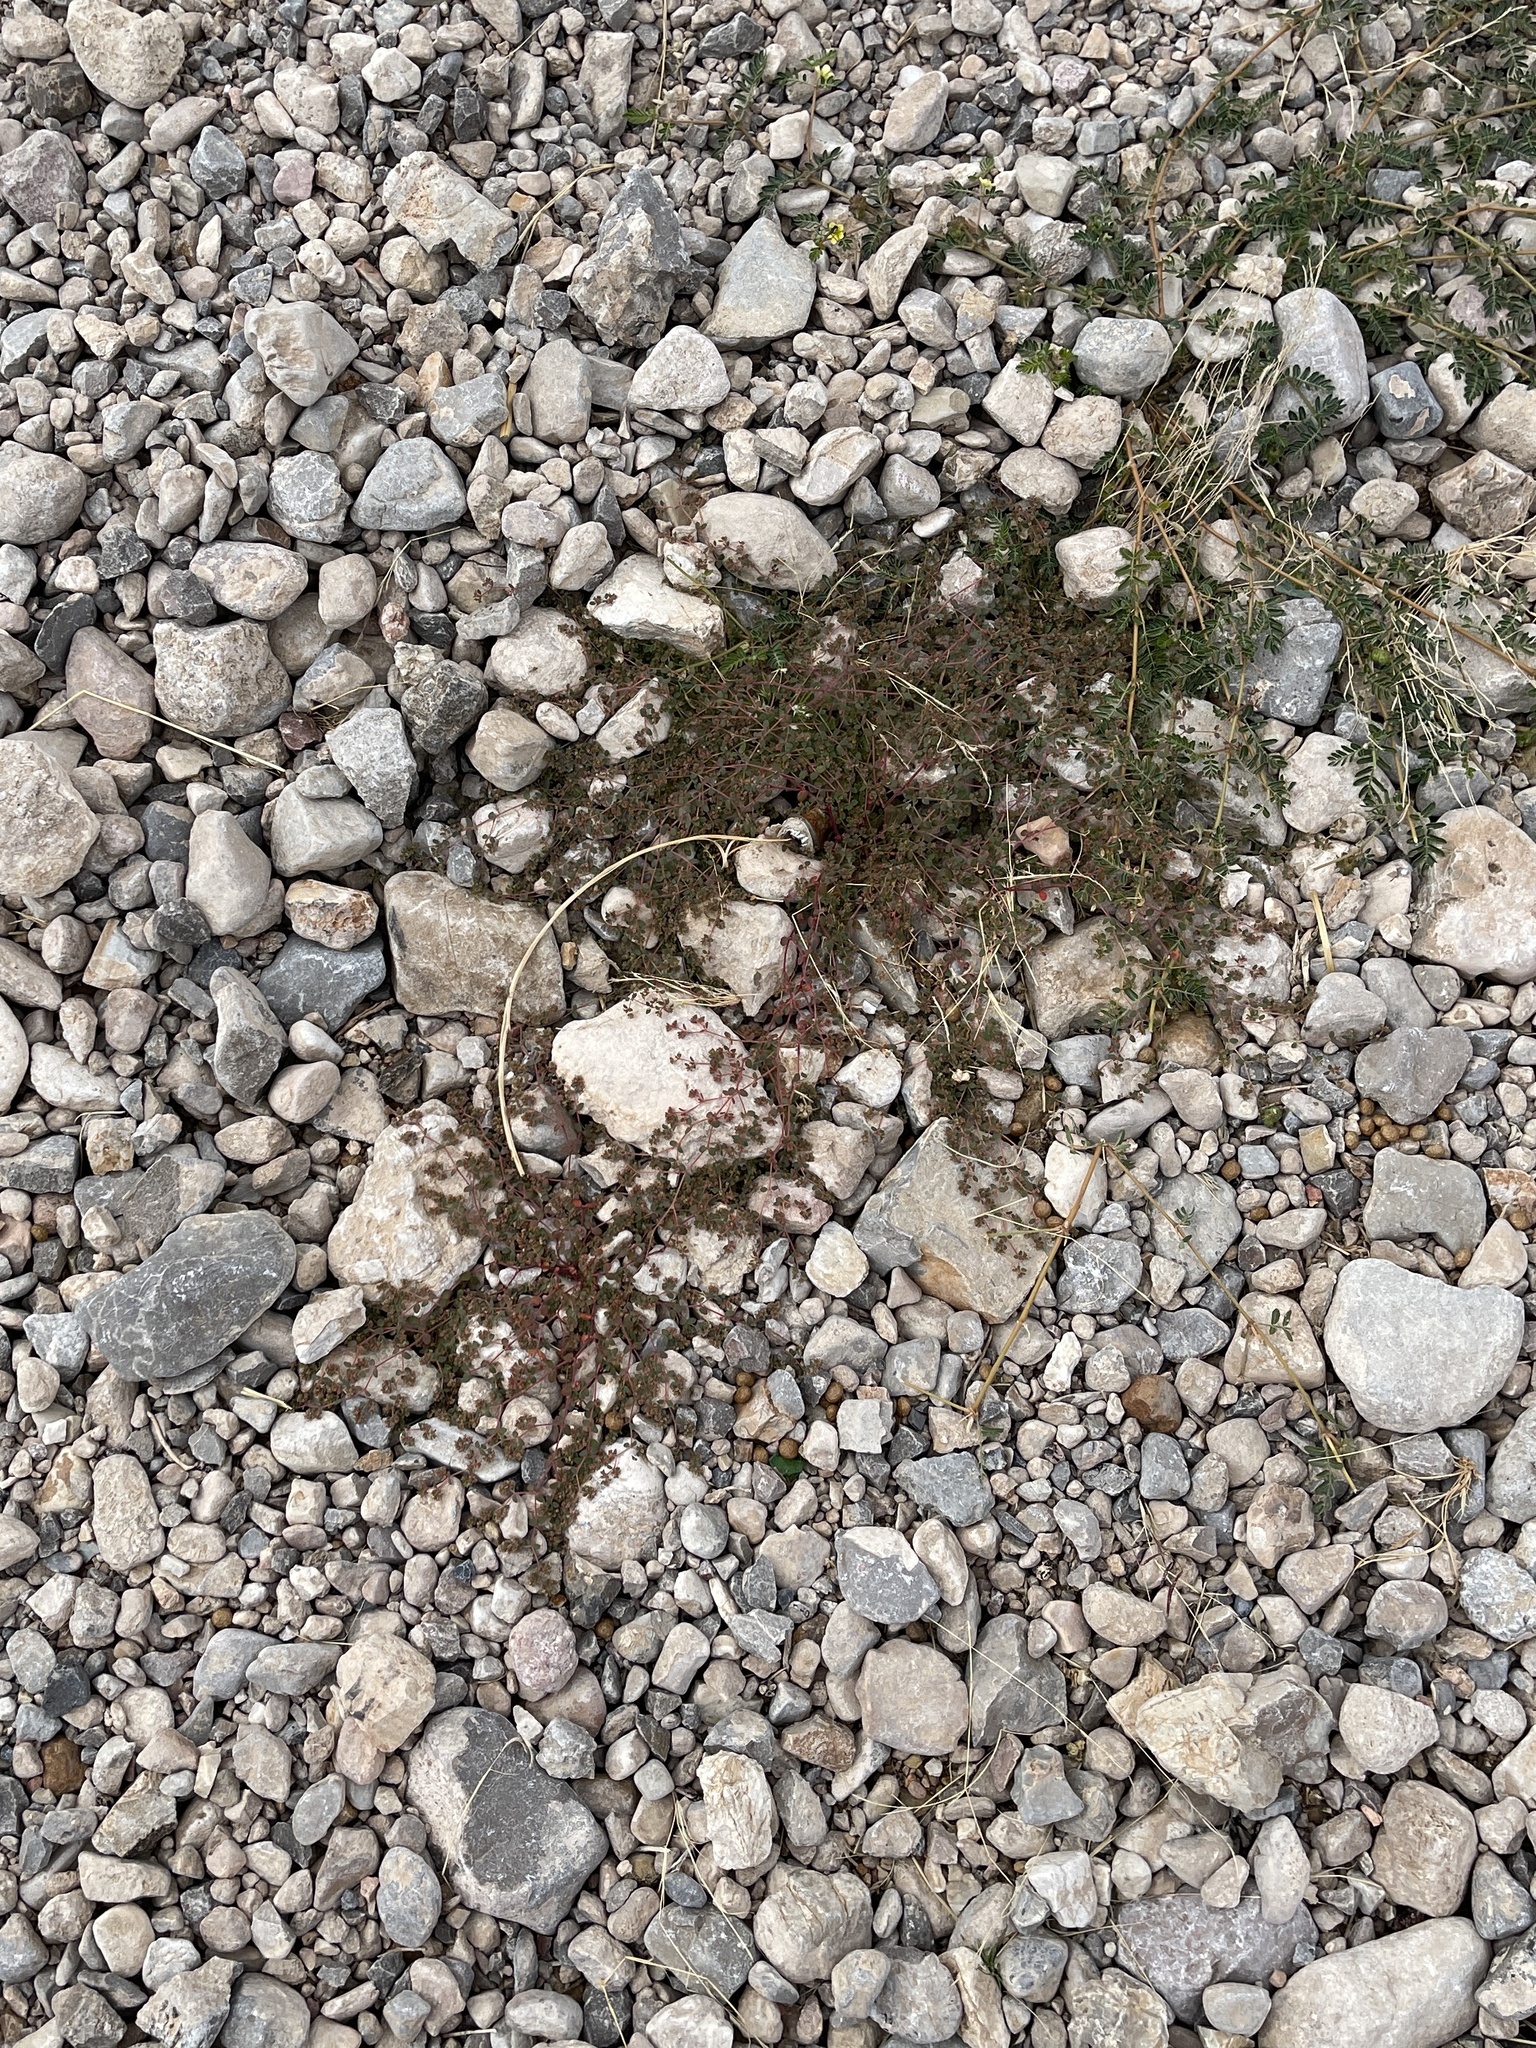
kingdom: Plantae
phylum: Tracheophyta
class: Magnoliopsida
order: Malpighiales
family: Euphorbiaceae
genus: Euphorbia
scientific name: Euphorbia setiloba
